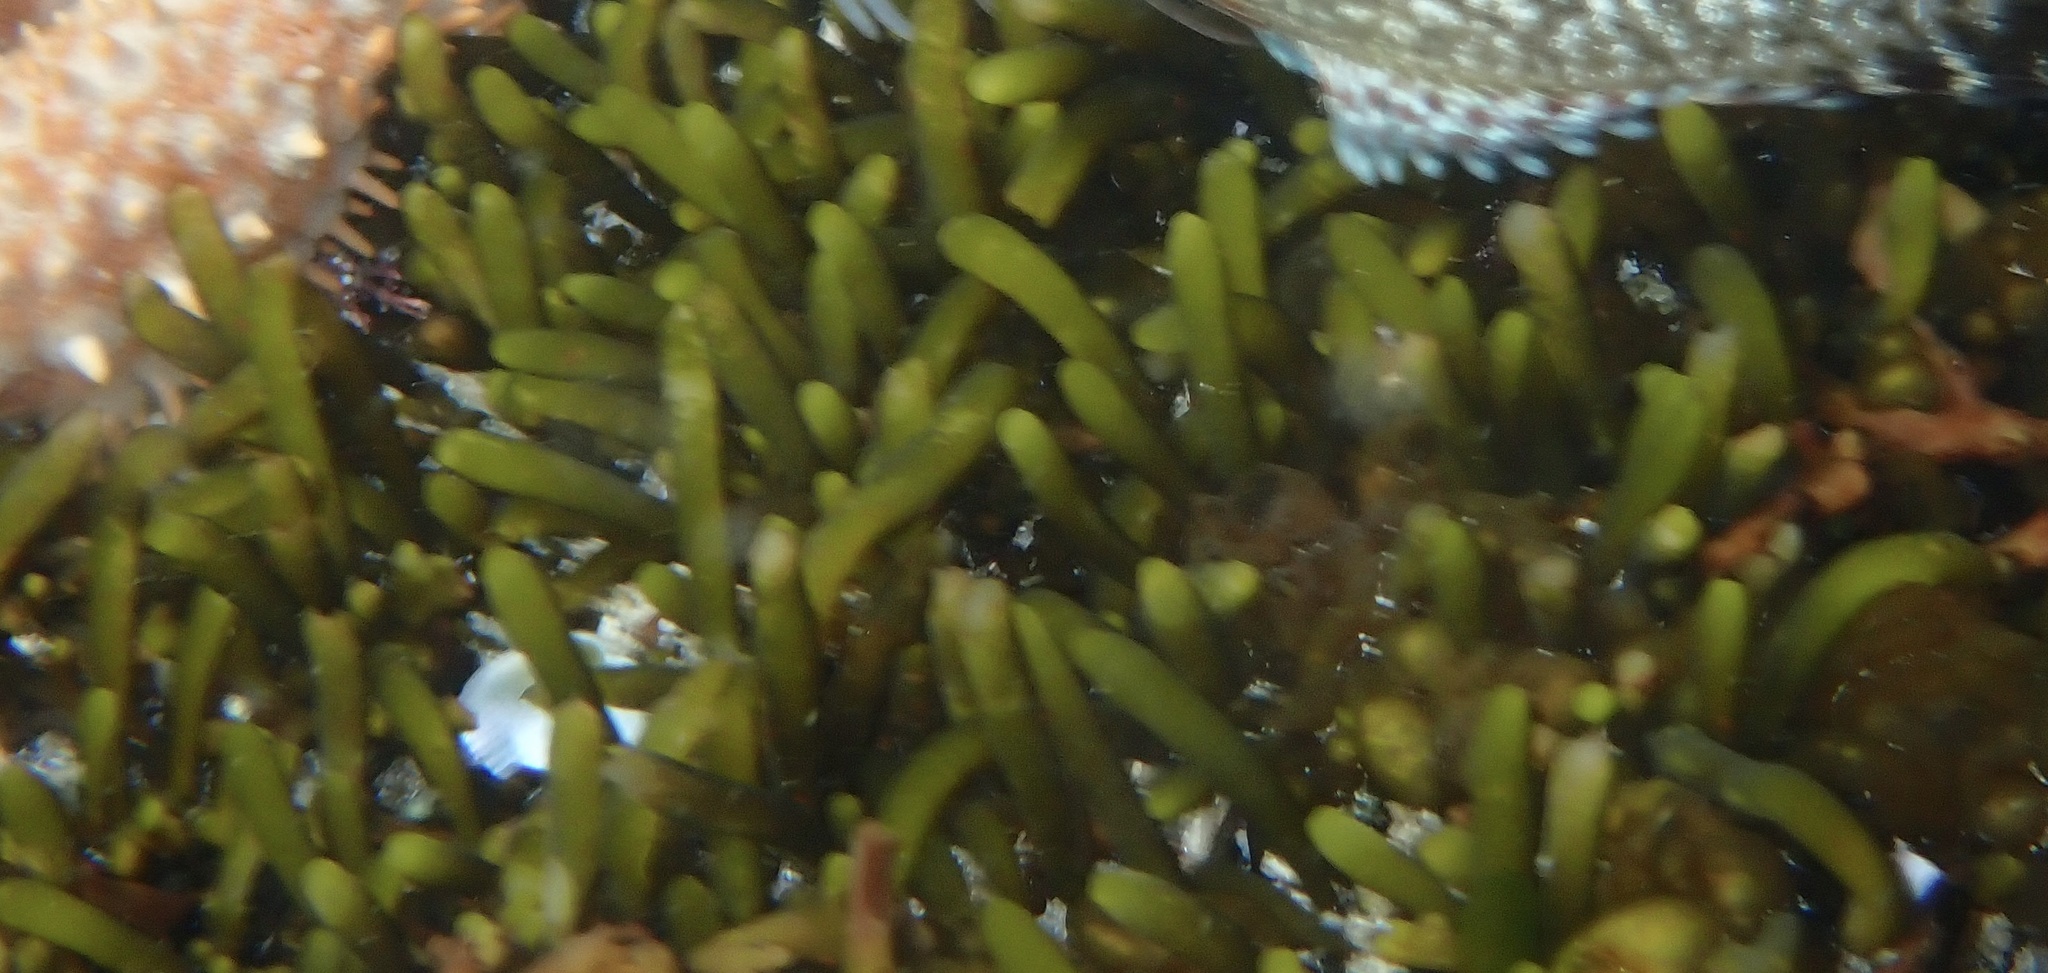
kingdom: Chromista
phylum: Ochrophyta
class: Phaeophyceae
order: Fucales
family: Sargassaceae
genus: Brassicophycus
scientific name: Brassicophycus
